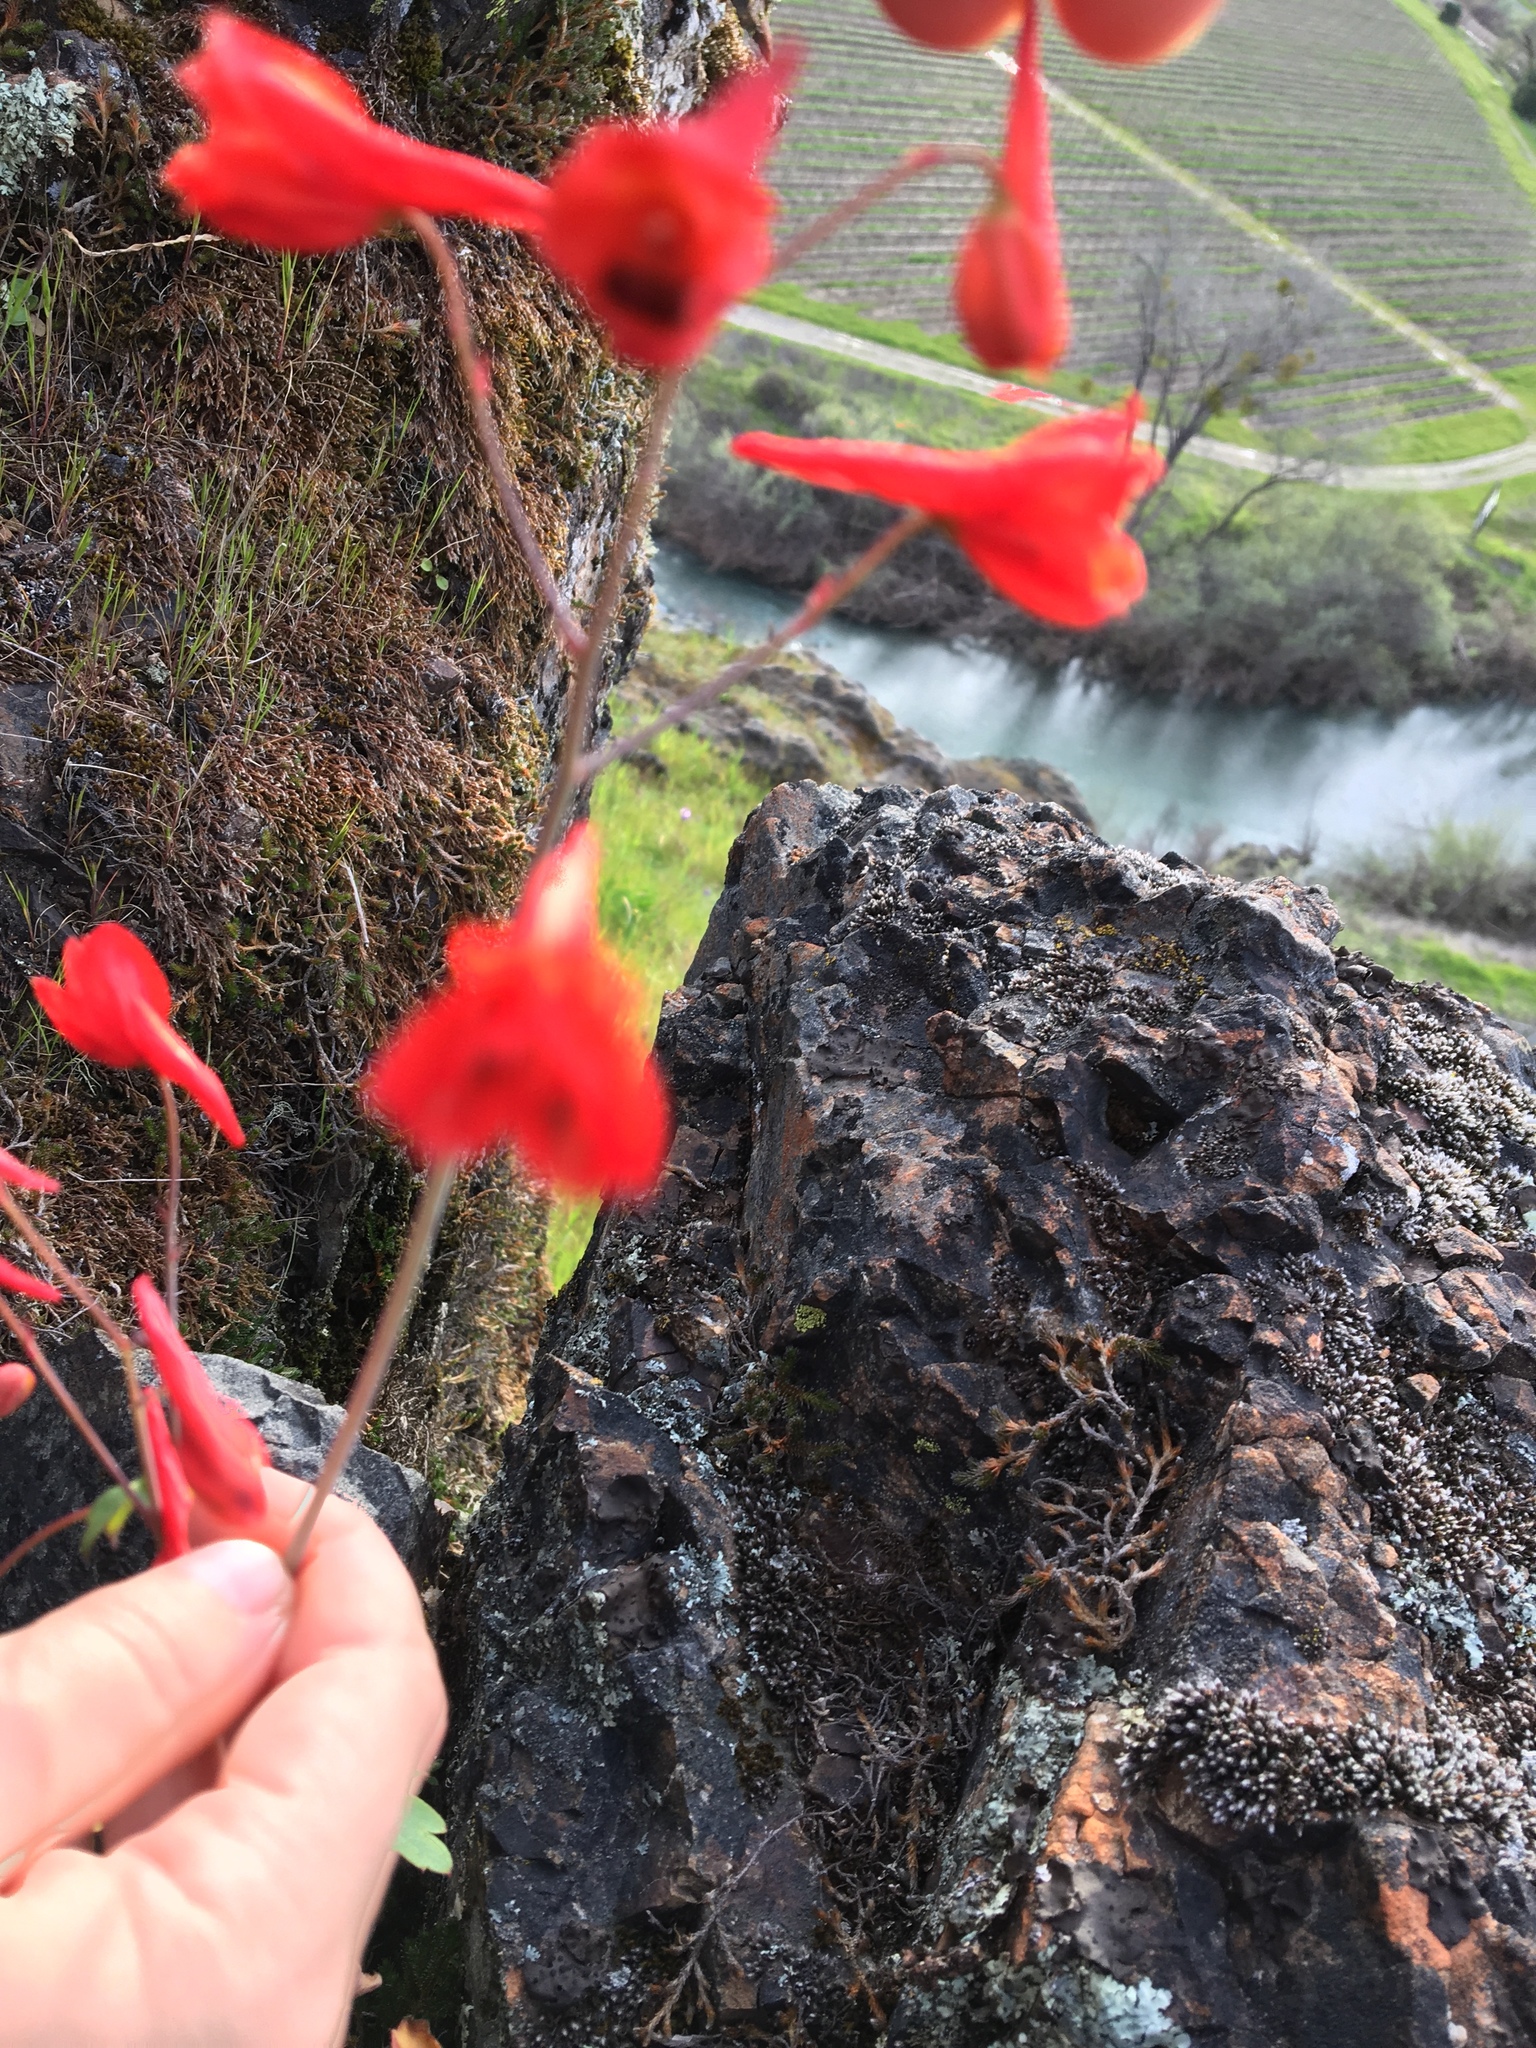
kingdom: Plantae
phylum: Tracheophyta
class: Magnoliopsida
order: Ranunculales
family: Ranunculaceae
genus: Delphinium
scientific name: Delphinium nudicaule
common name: Red larkspur
